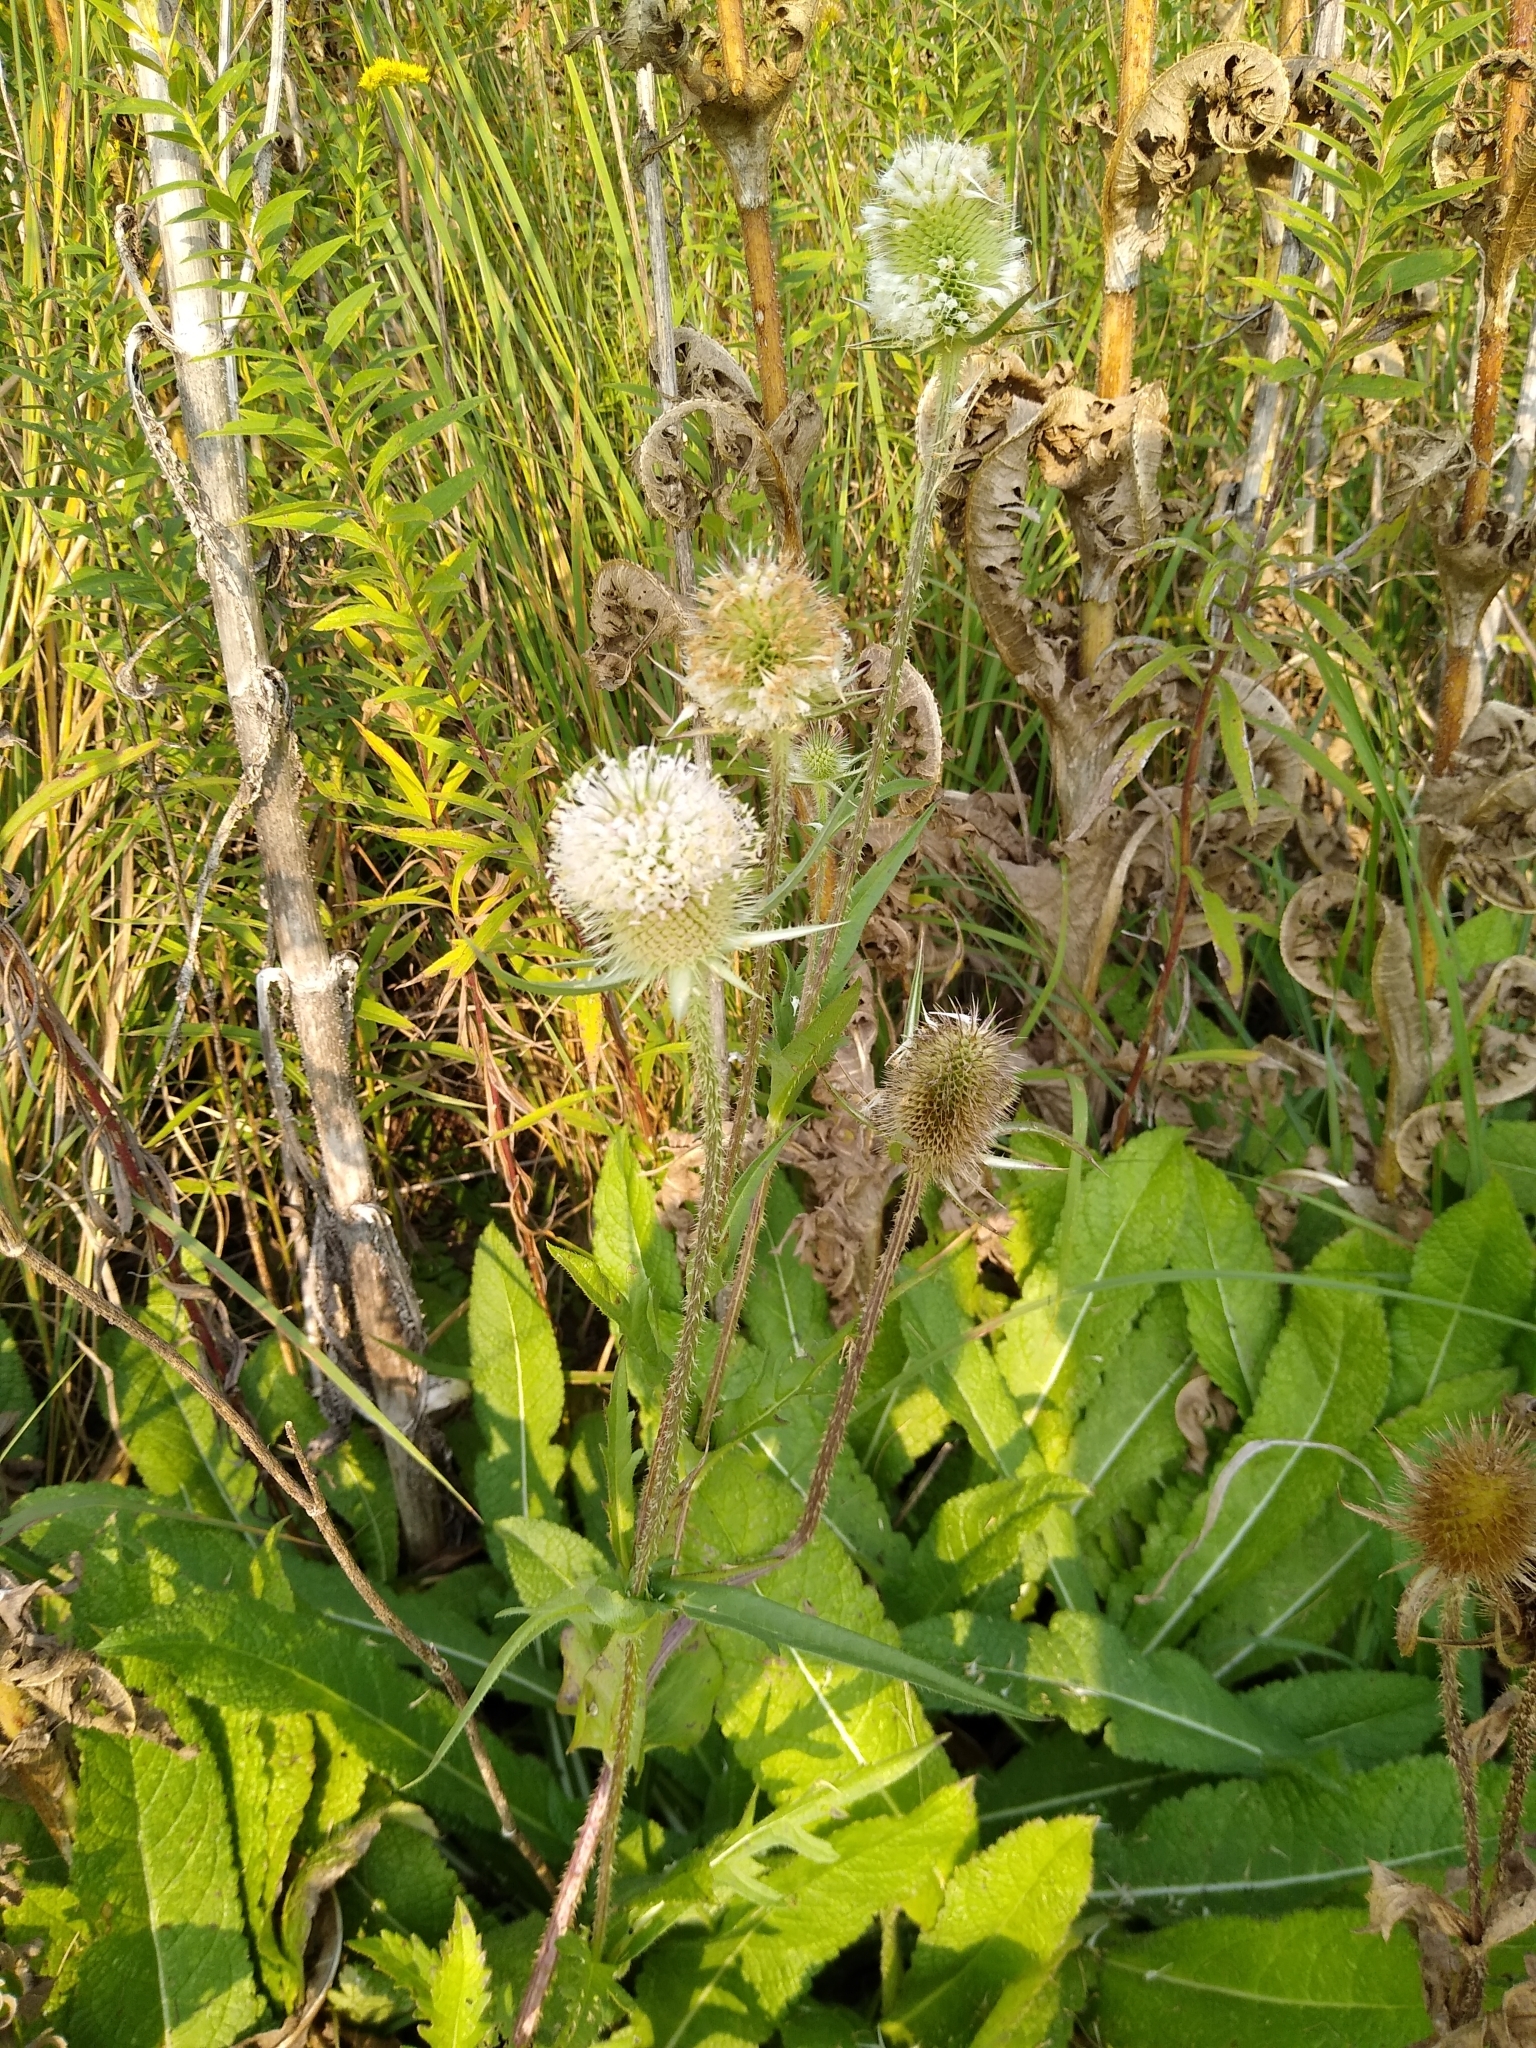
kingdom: Plantae
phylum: Tracheophyta
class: Magnoliopsida
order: Dipsacales
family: Caprifoliaceae
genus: Dipsacus
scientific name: Dipsacus laciniatus
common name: Cut-leaved teasel
